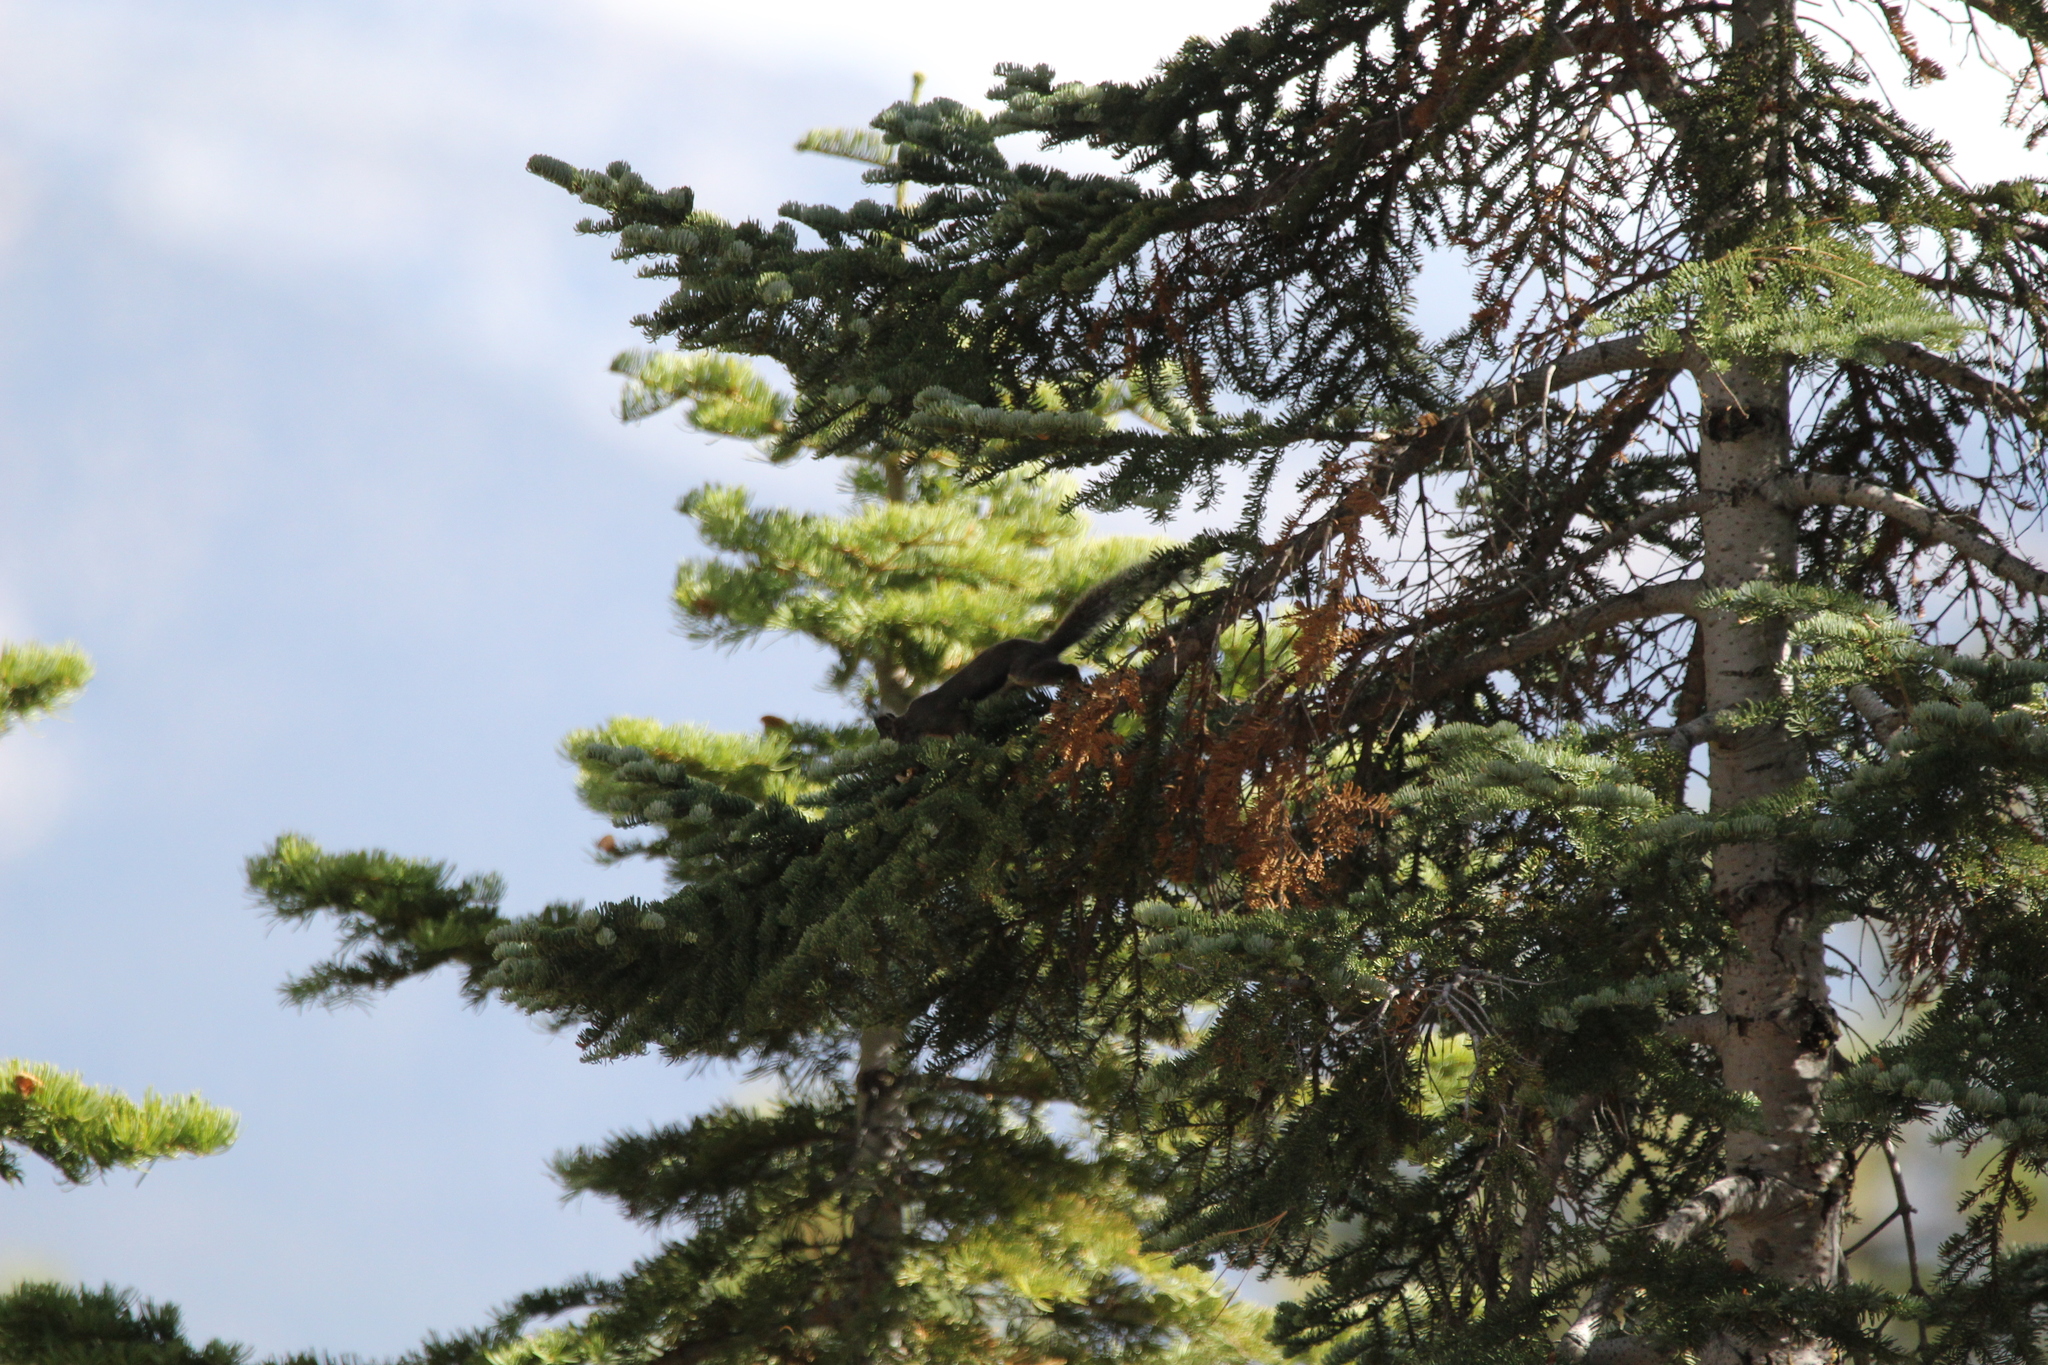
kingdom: Animalia
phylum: Chordata
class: Mammalia
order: Rodentia
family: Sciuridae
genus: Tamiasciurus
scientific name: Tamiasciurus douglasii
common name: Douglas's squirrel
